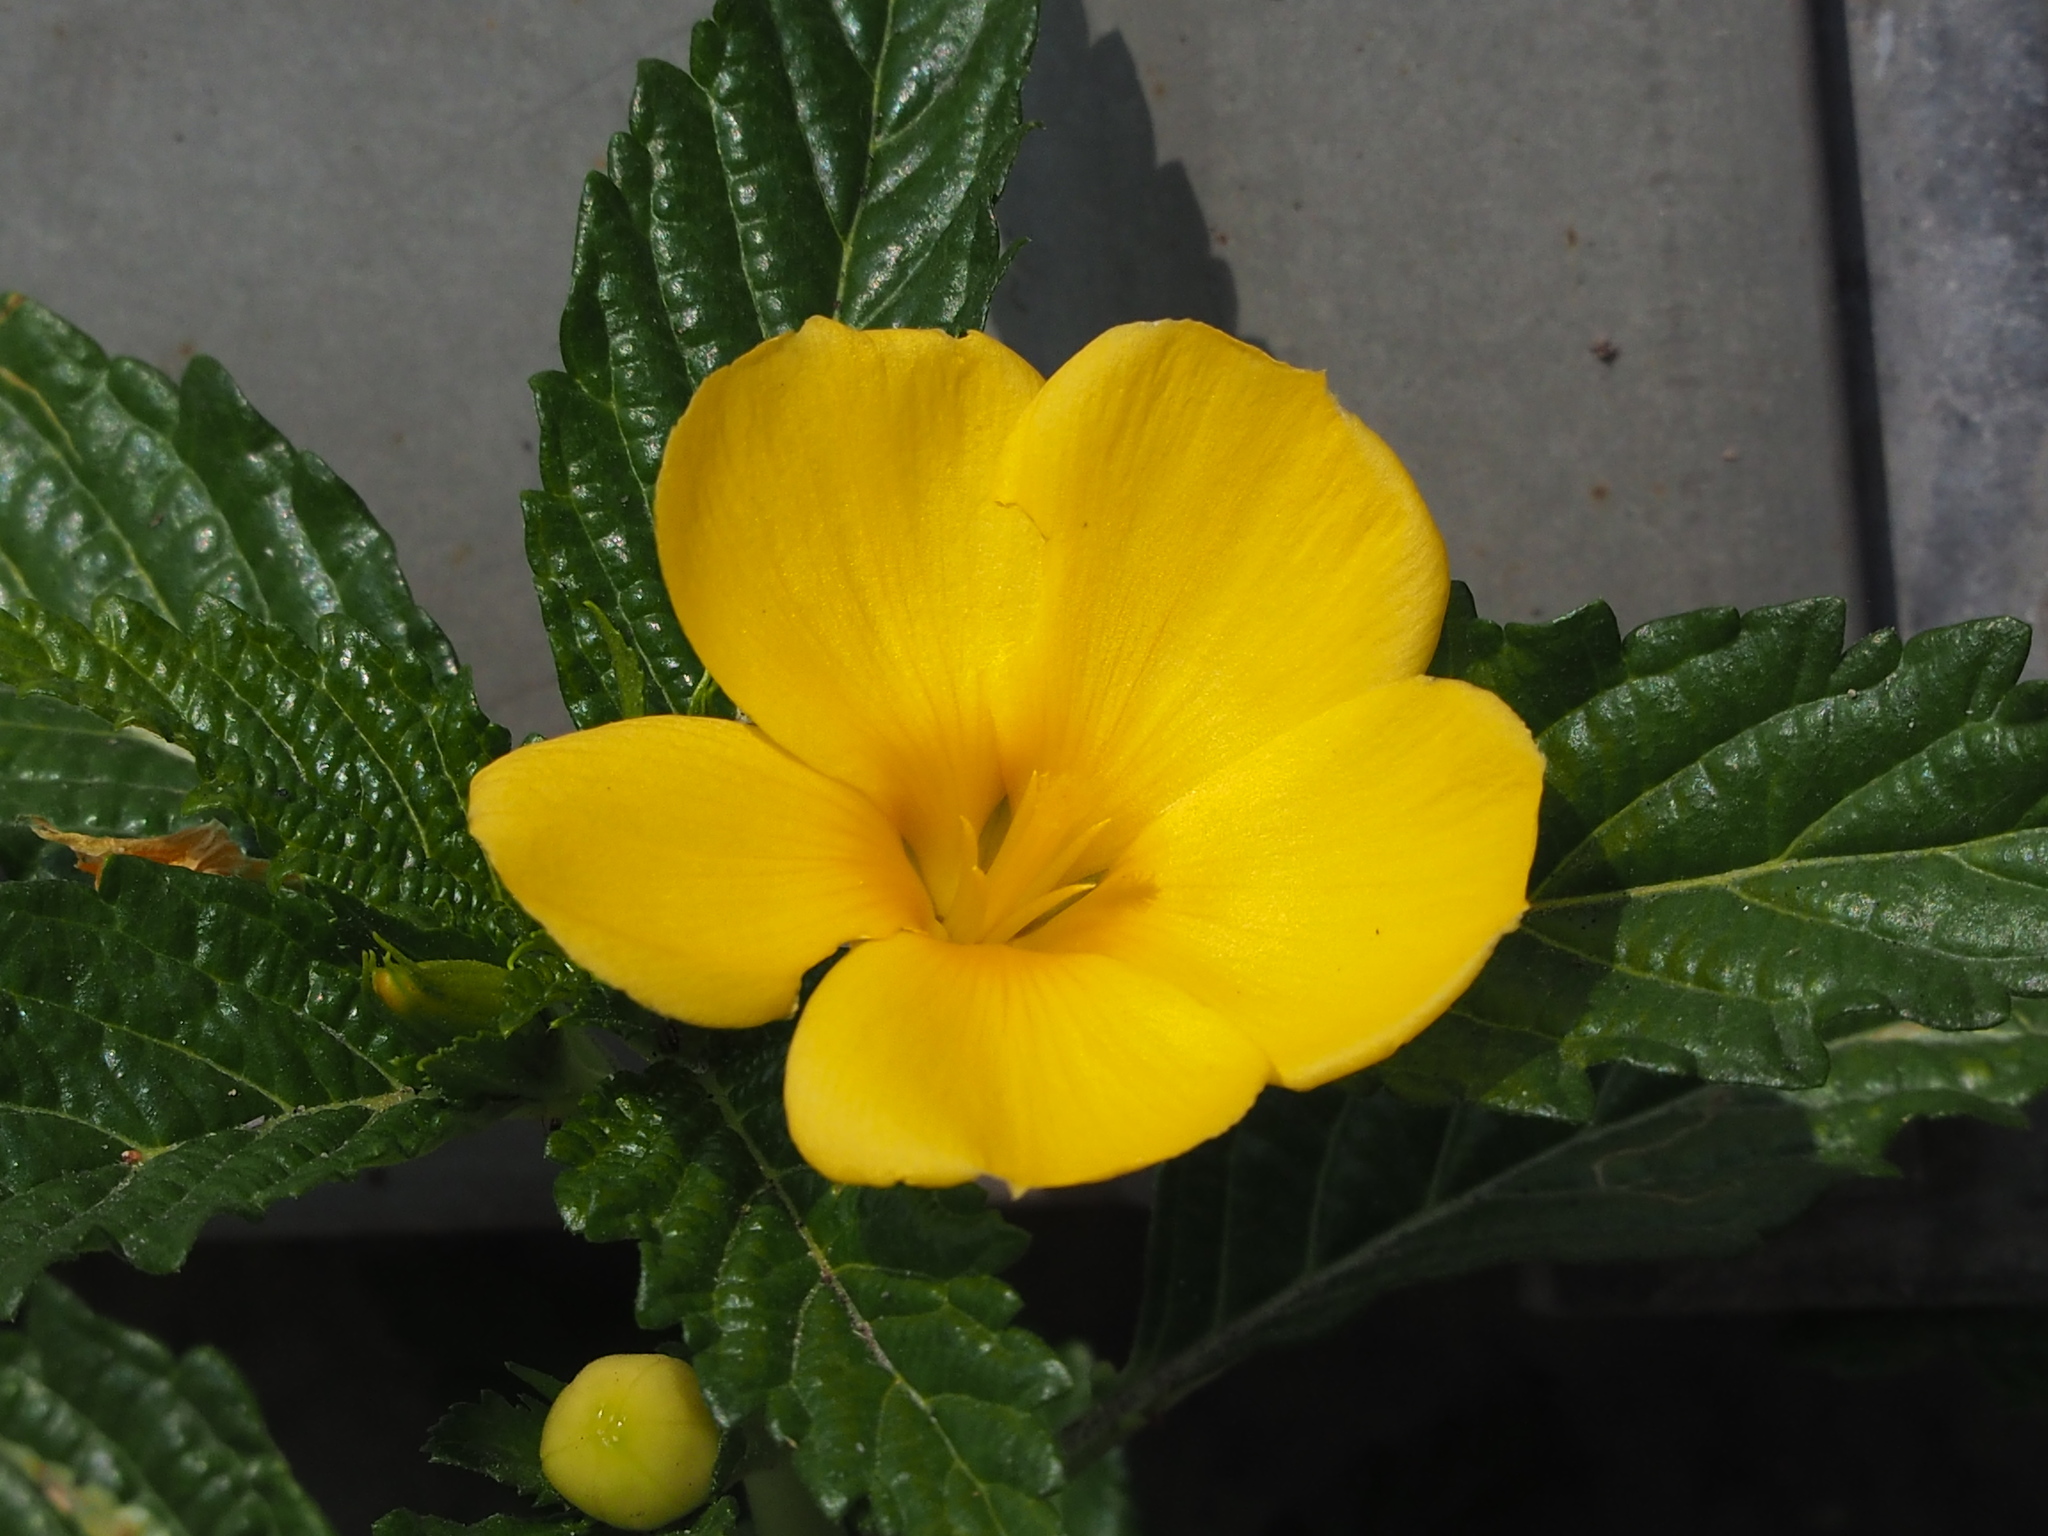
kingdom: Plantae
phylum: Tracheophyta
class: Magnoliopsida
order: Malpighiales
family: Turneraceae
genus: Turnera
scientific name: Turnera ulmifolia
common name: Ramgoat dashalong
